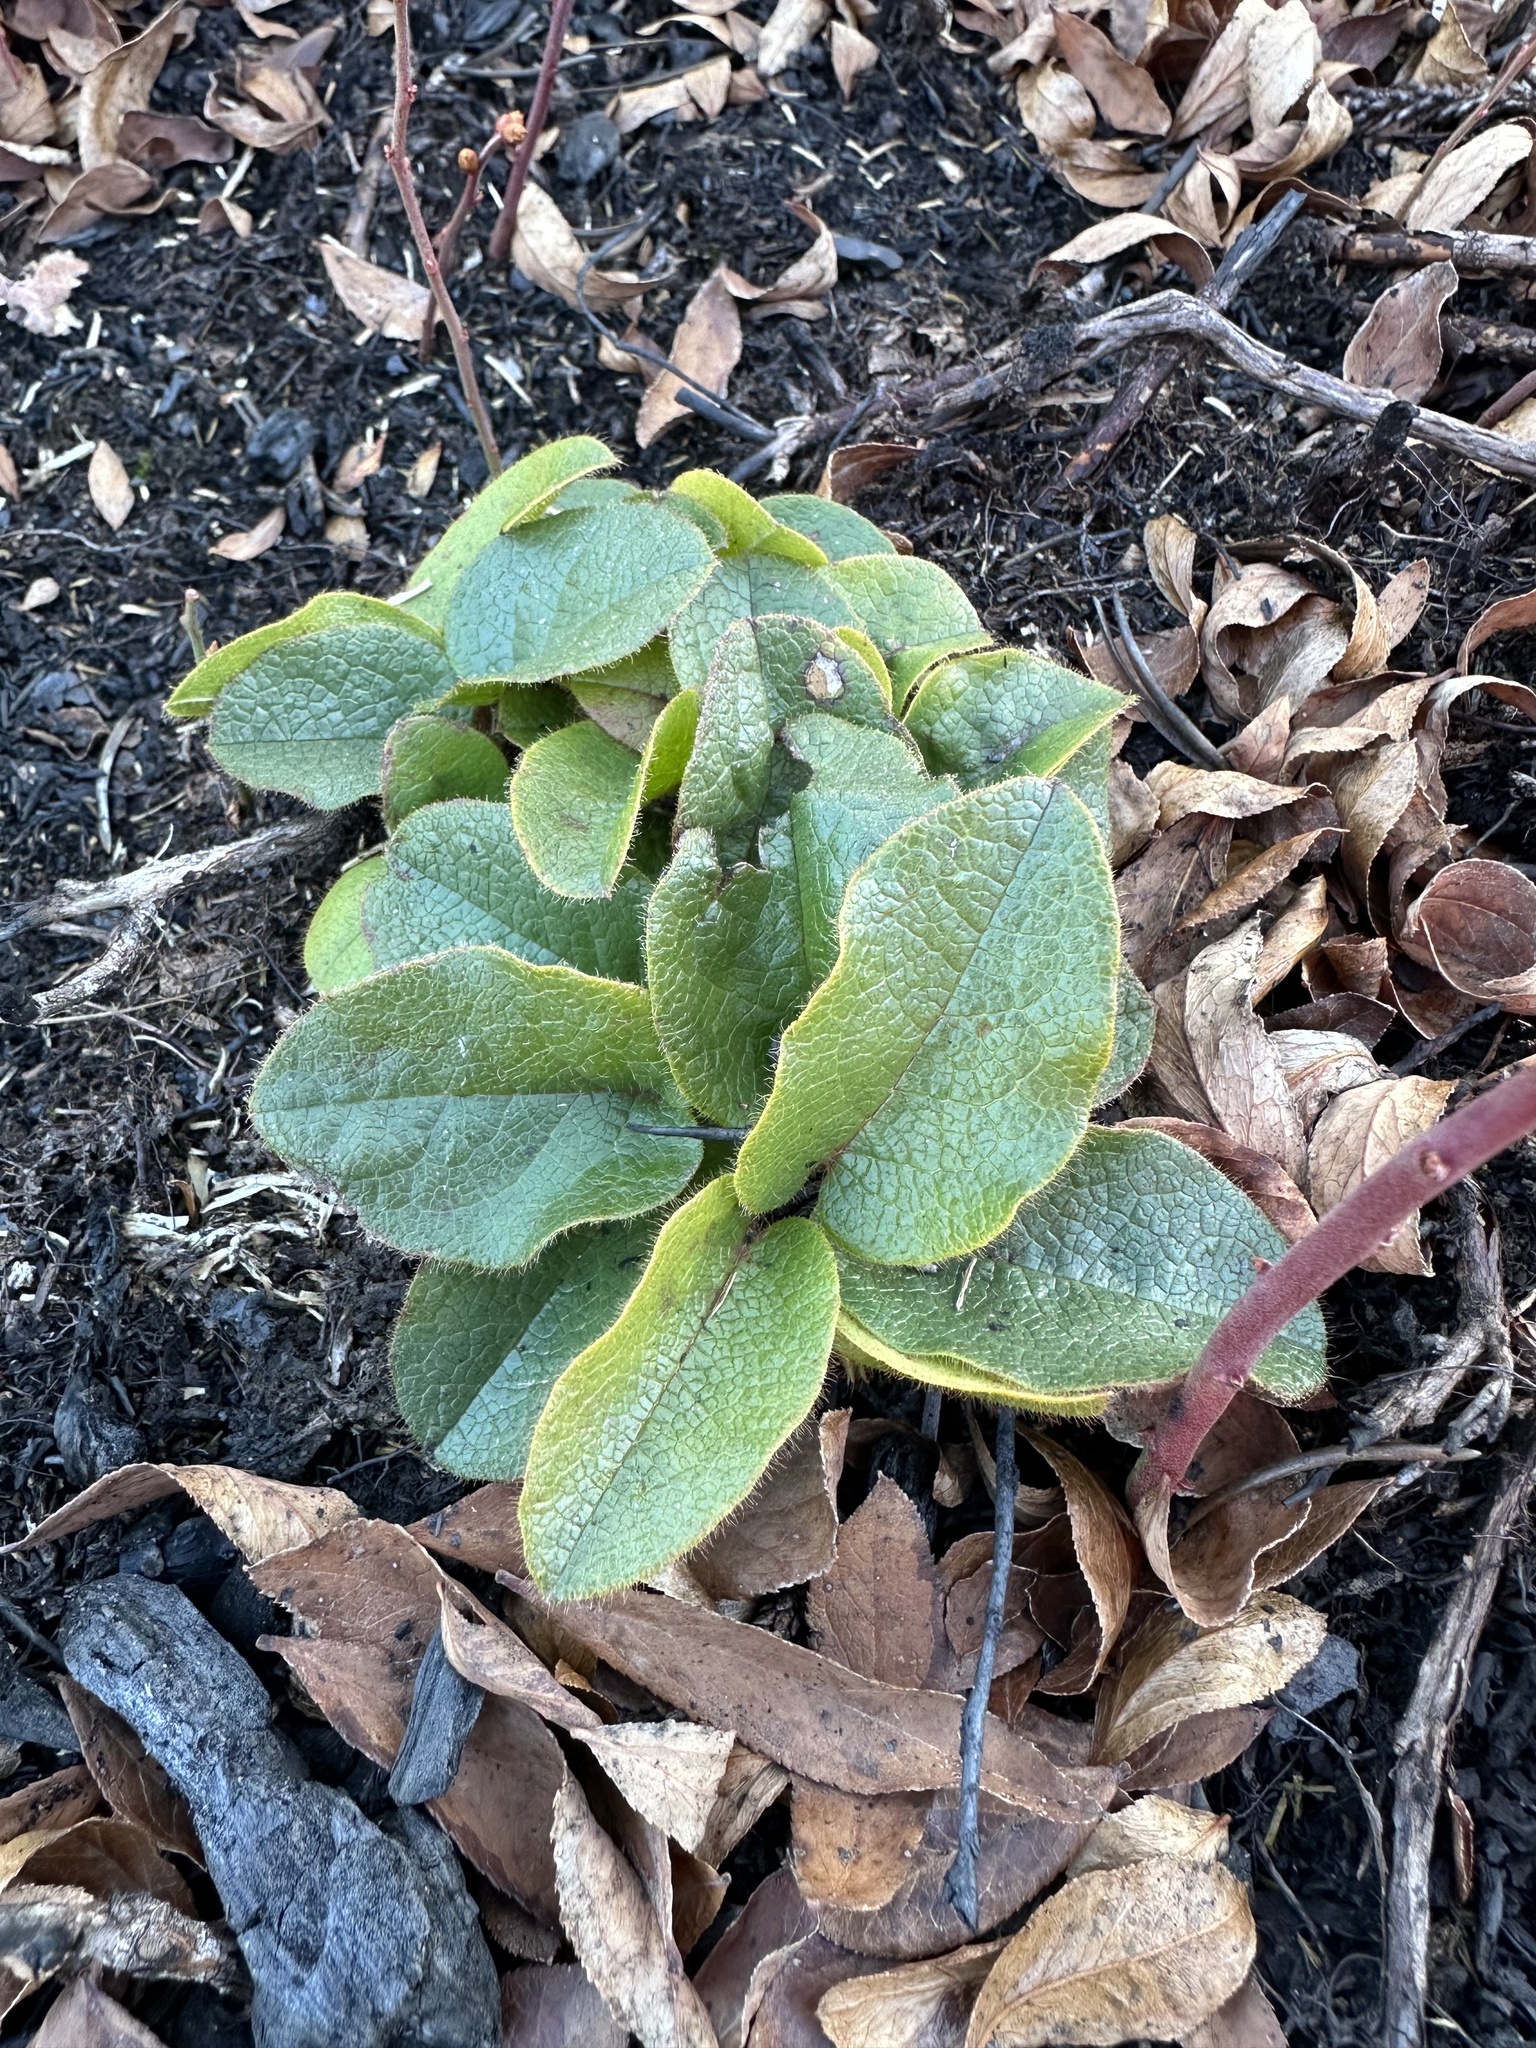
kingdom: Plantae
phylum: Tracheophyta
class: Magnoliopsida
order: Ericales
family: Ericaceae
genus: Epigaea
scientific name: Epigaea repens
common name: Gravelroot
